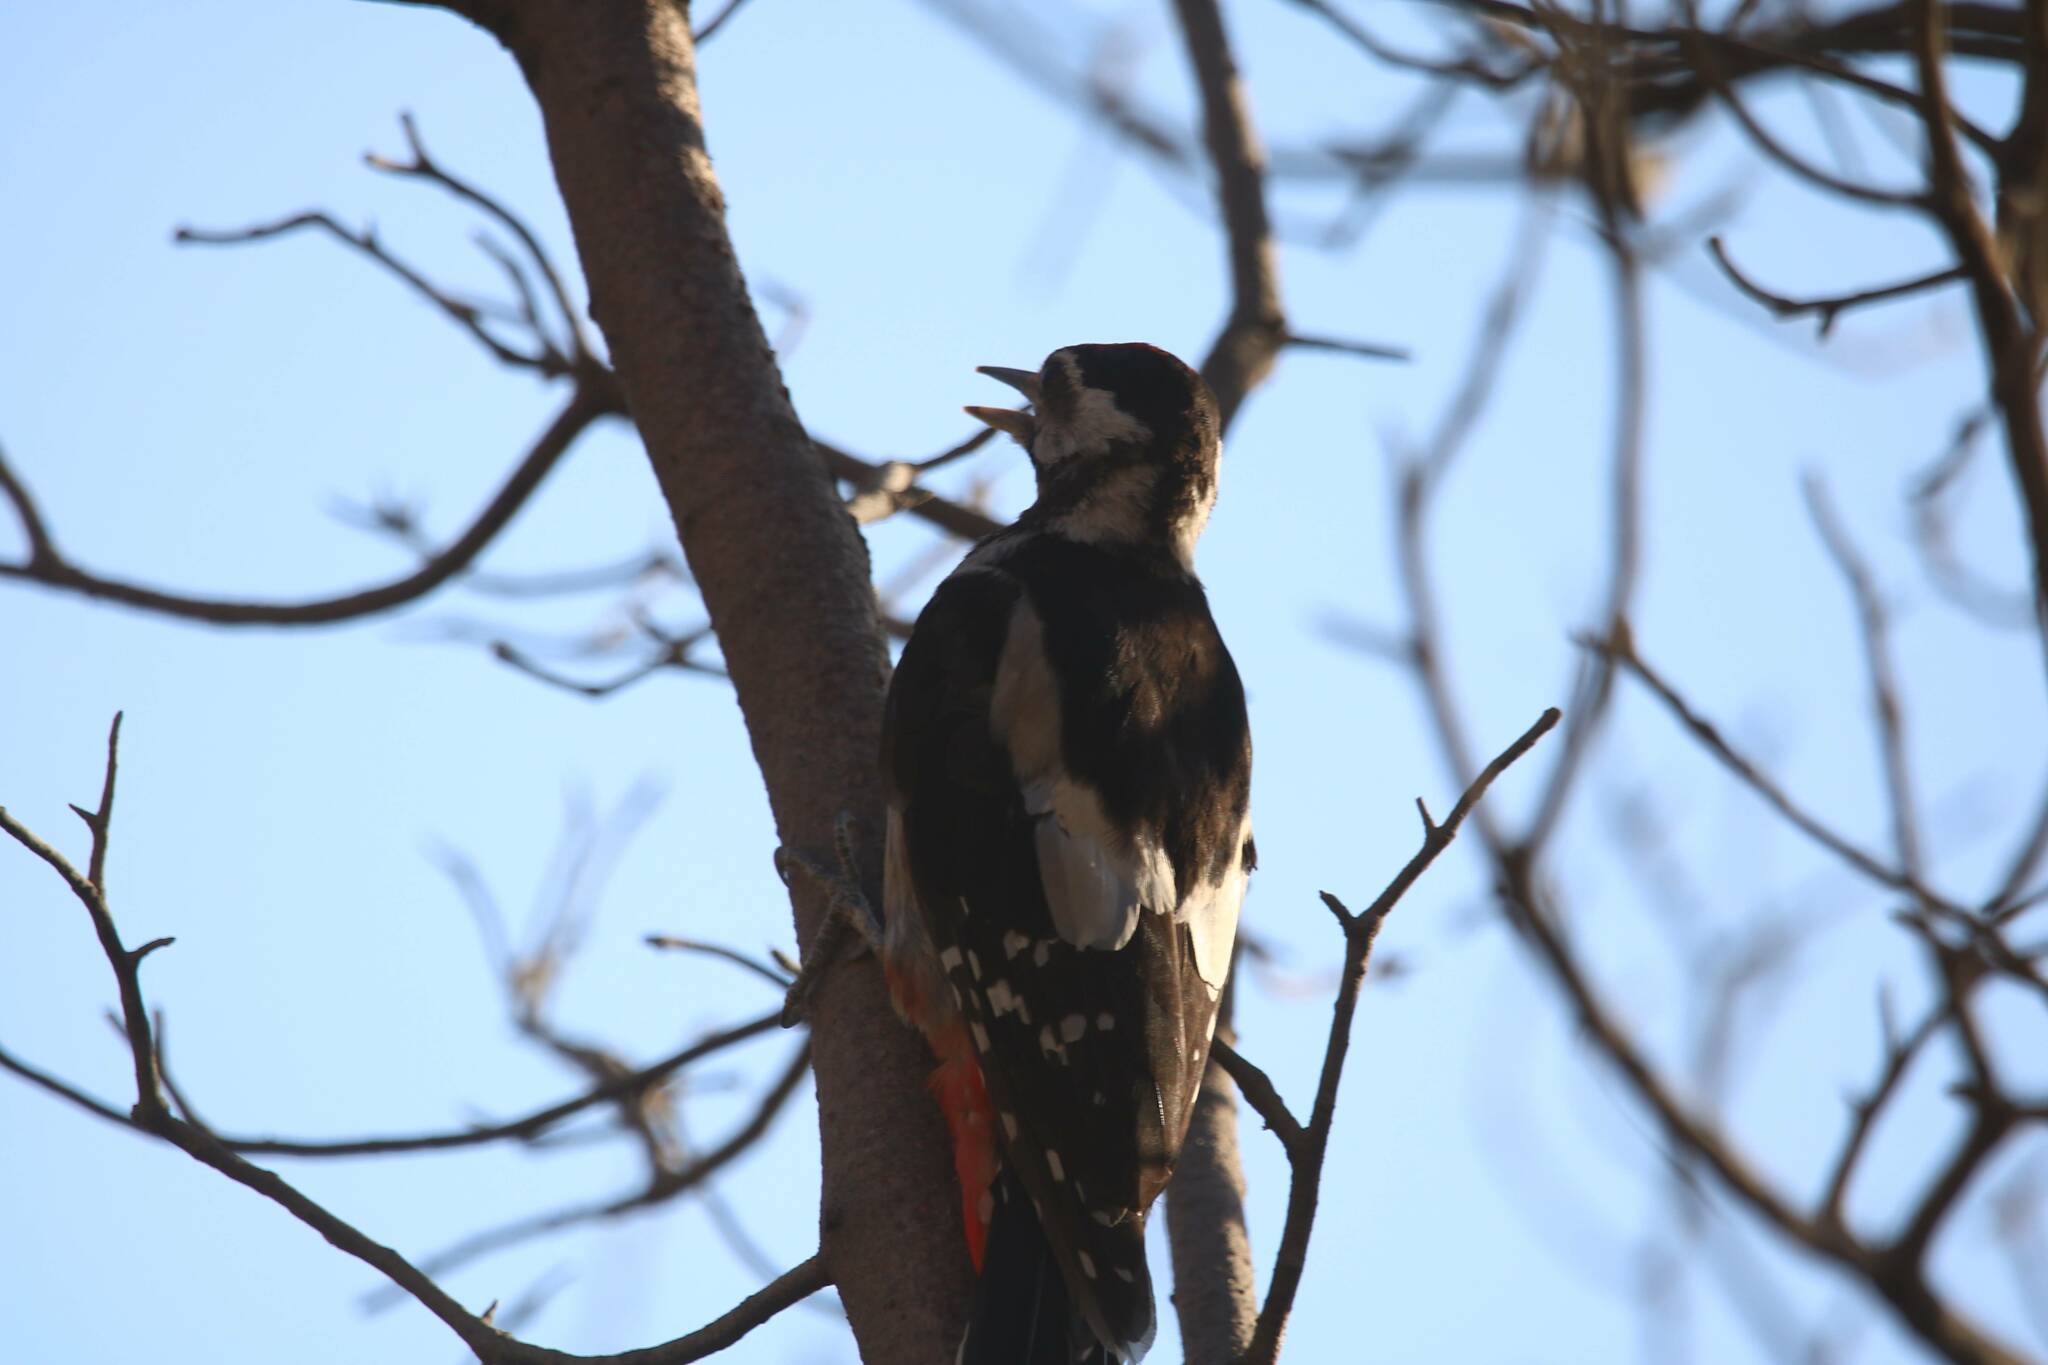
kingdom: Animalia
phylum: Chordata
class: Aves
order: Piciformes
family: Picidae
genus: Dendrocopos
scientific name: Dendrocopos major
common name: Great spotted woodpecker
